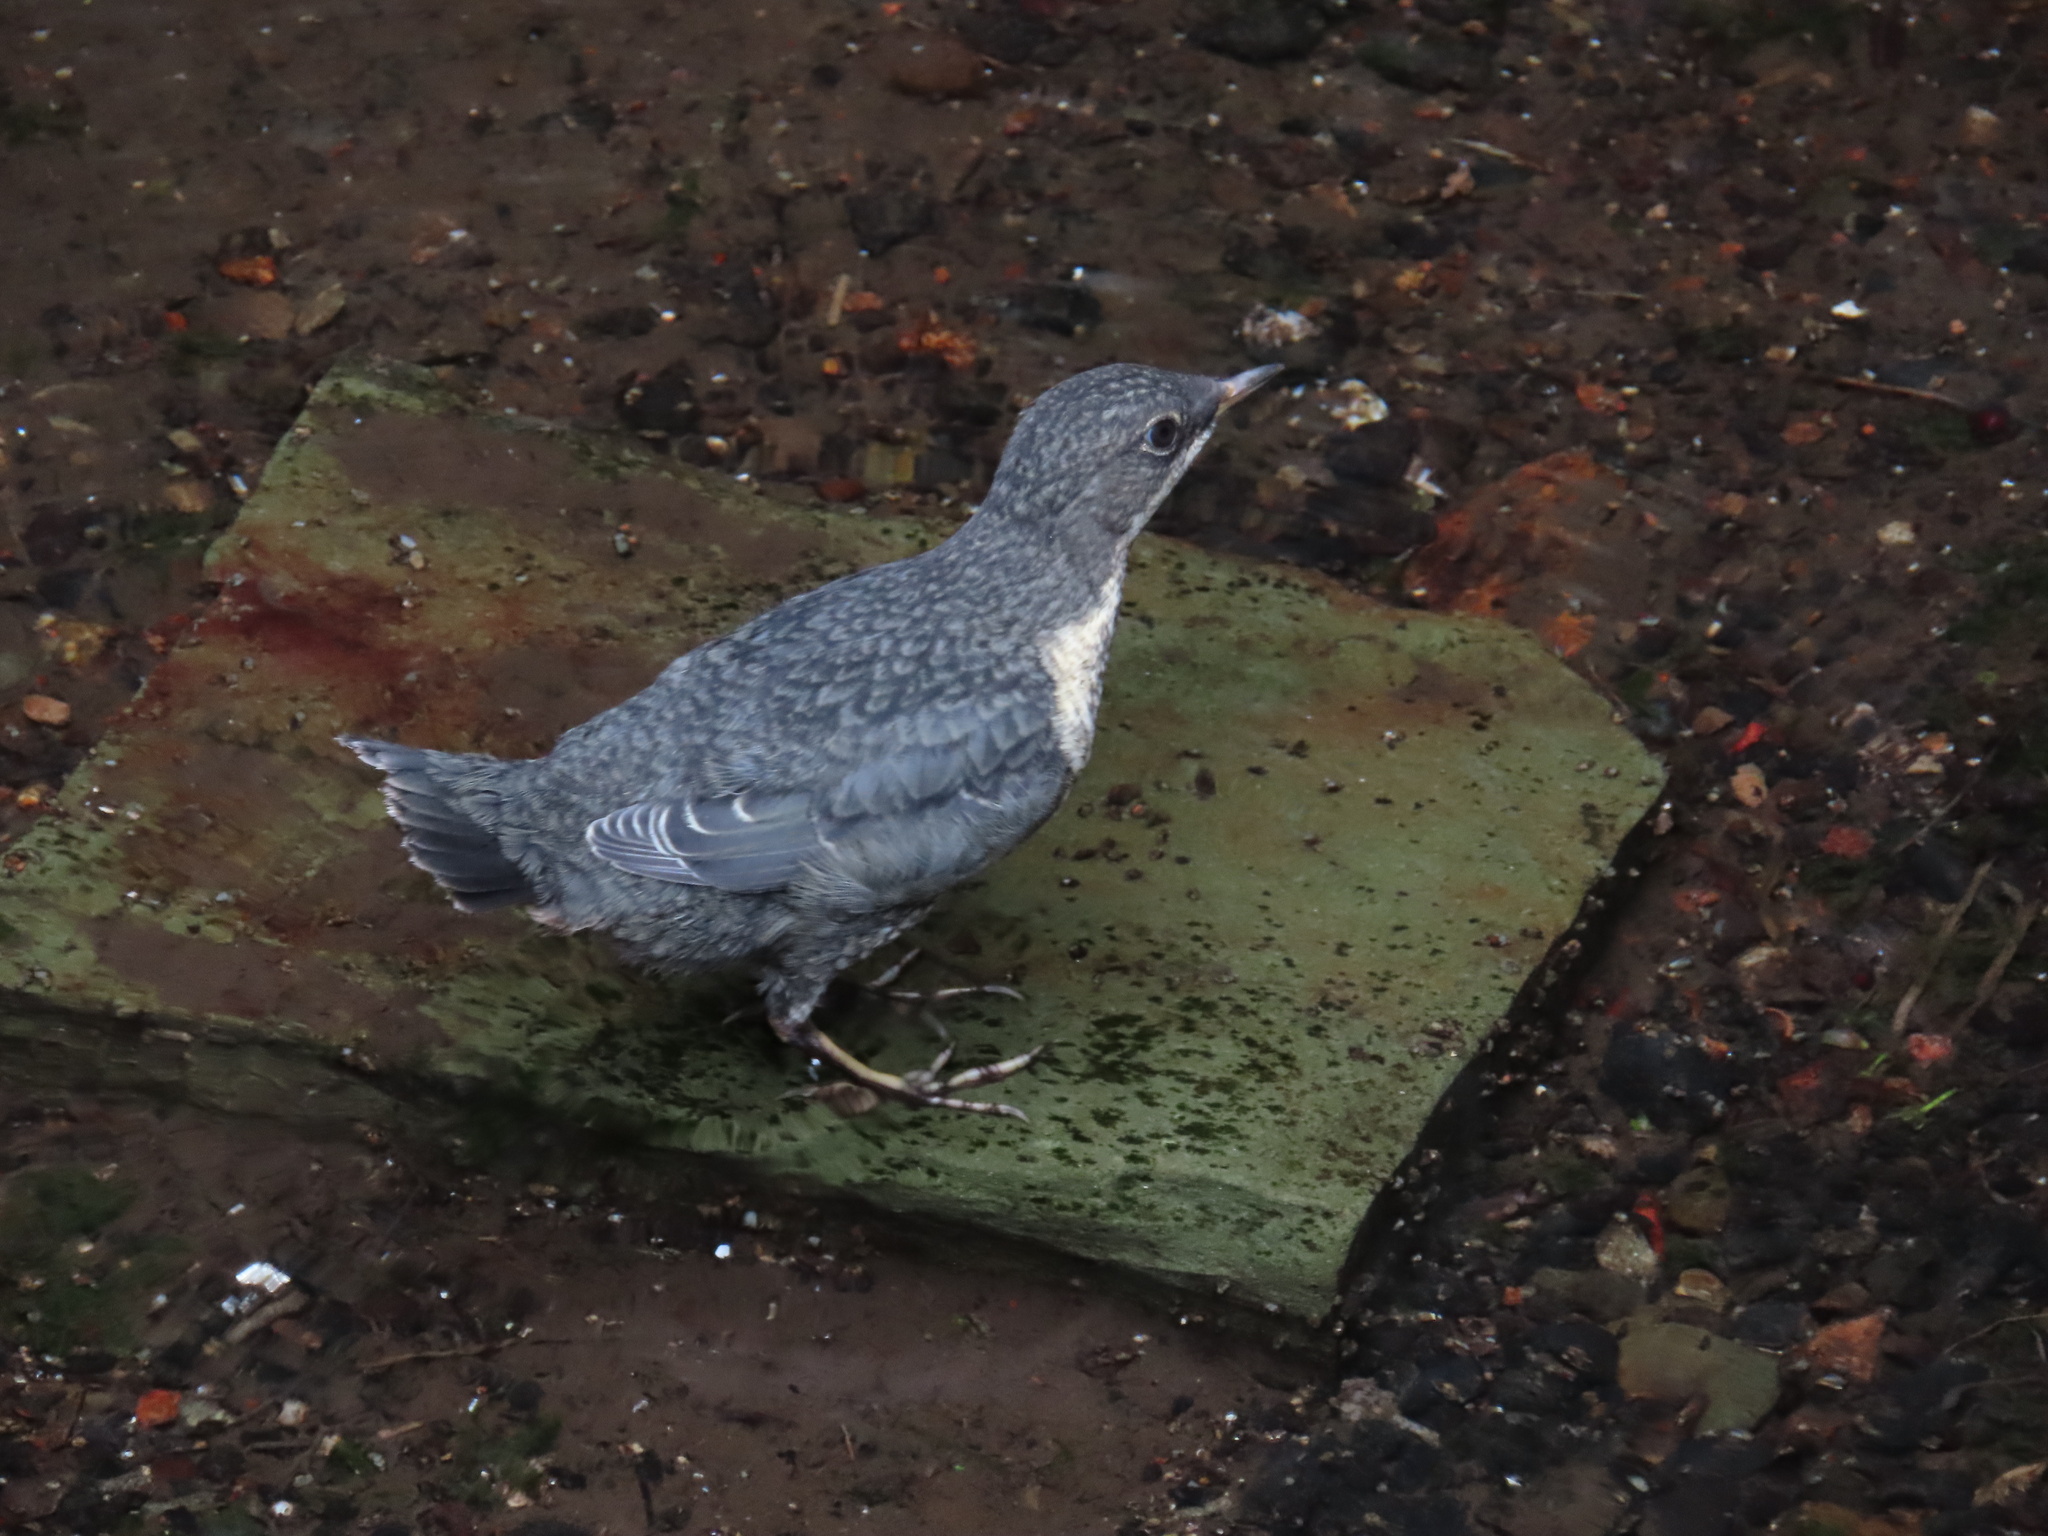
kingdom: Animalia
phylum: Chordata
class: Aves
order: Passeriformes
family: Cinclidae
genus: Cinclus
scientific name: Cinclus cinclus
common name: White-throated dipper
